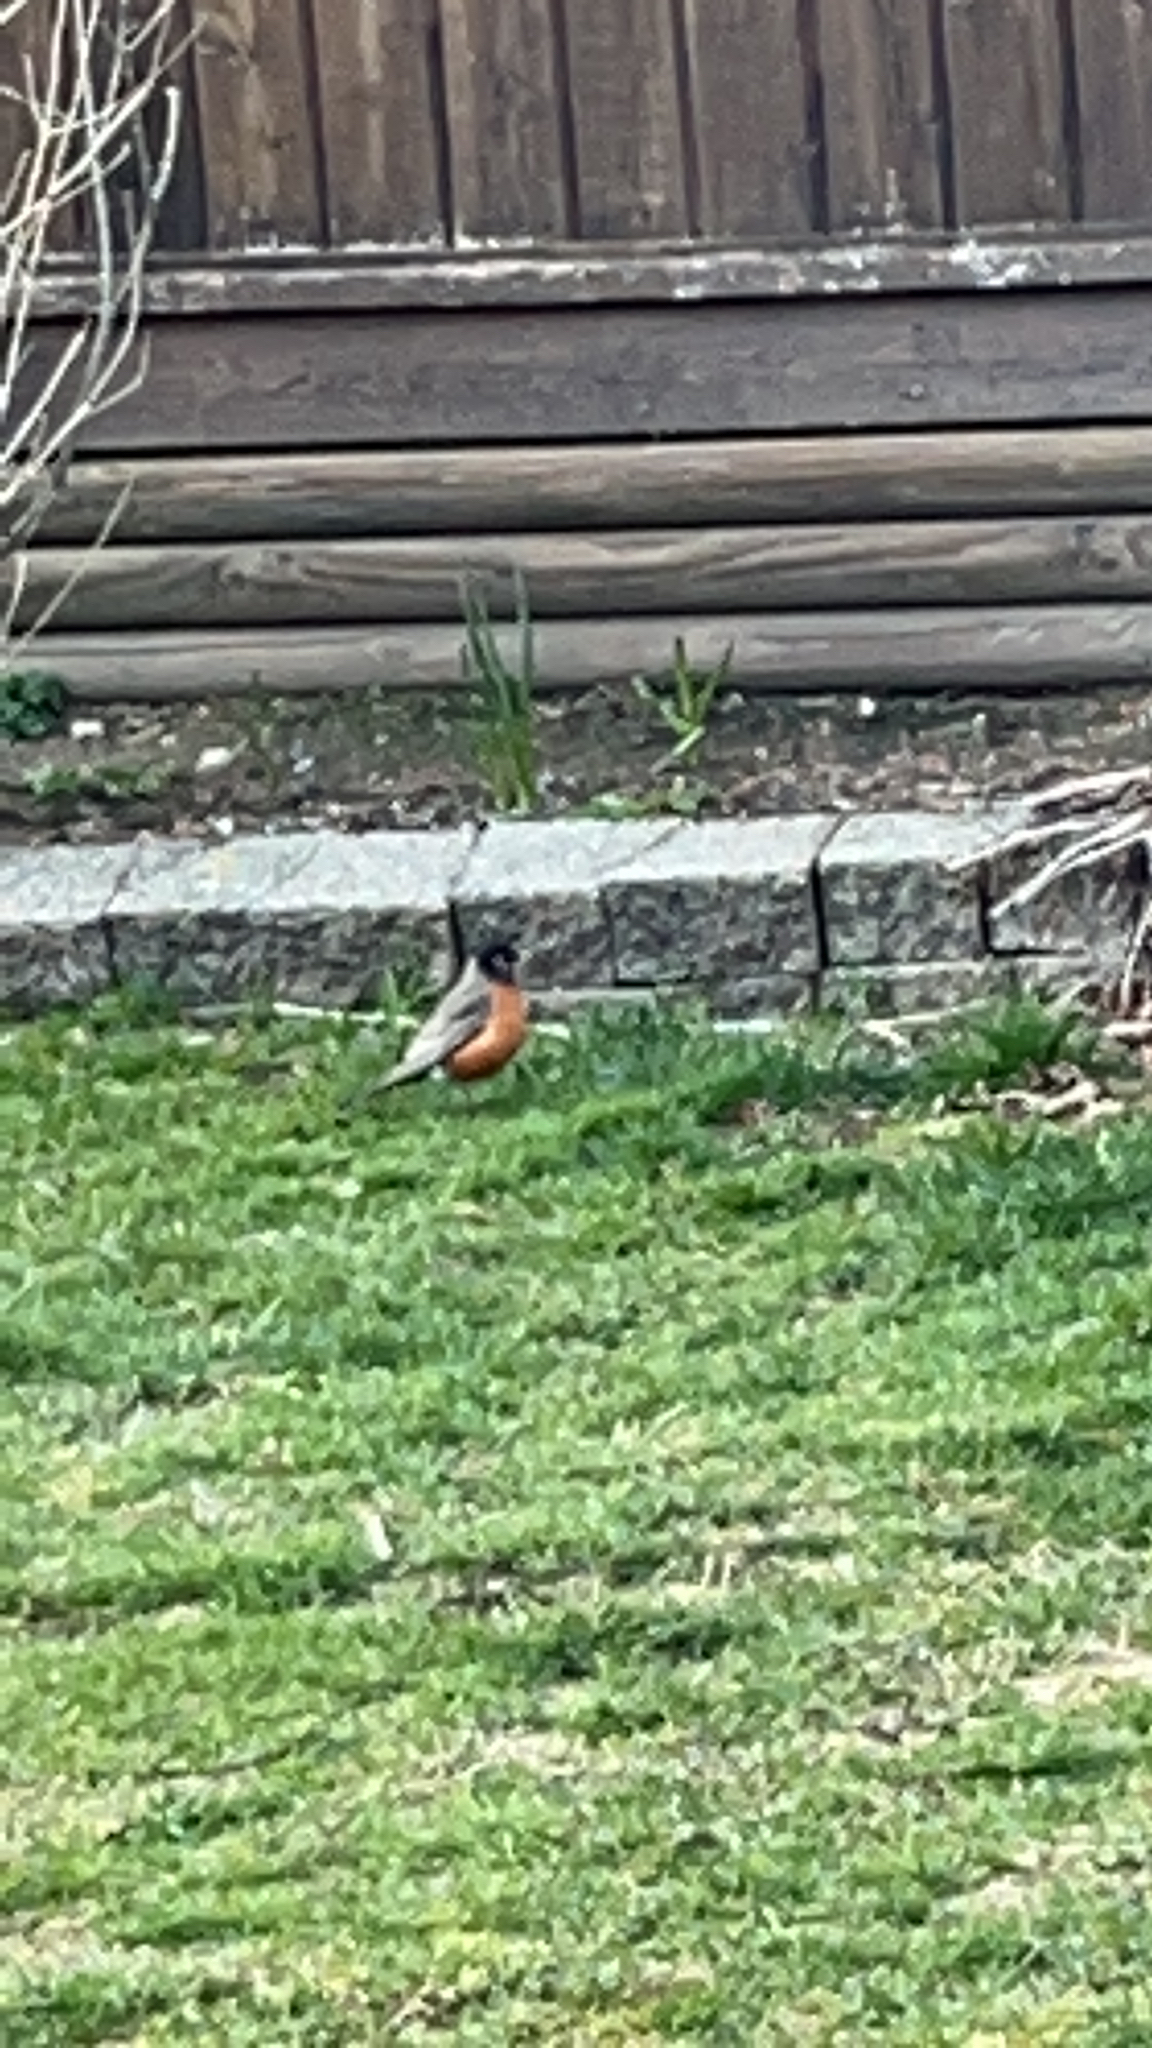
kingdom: Animalia
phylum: Chordata
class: Aves
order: Passeriformes
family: Turdidae
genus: Turdus
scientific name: Turdus migratorius
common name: American robin
